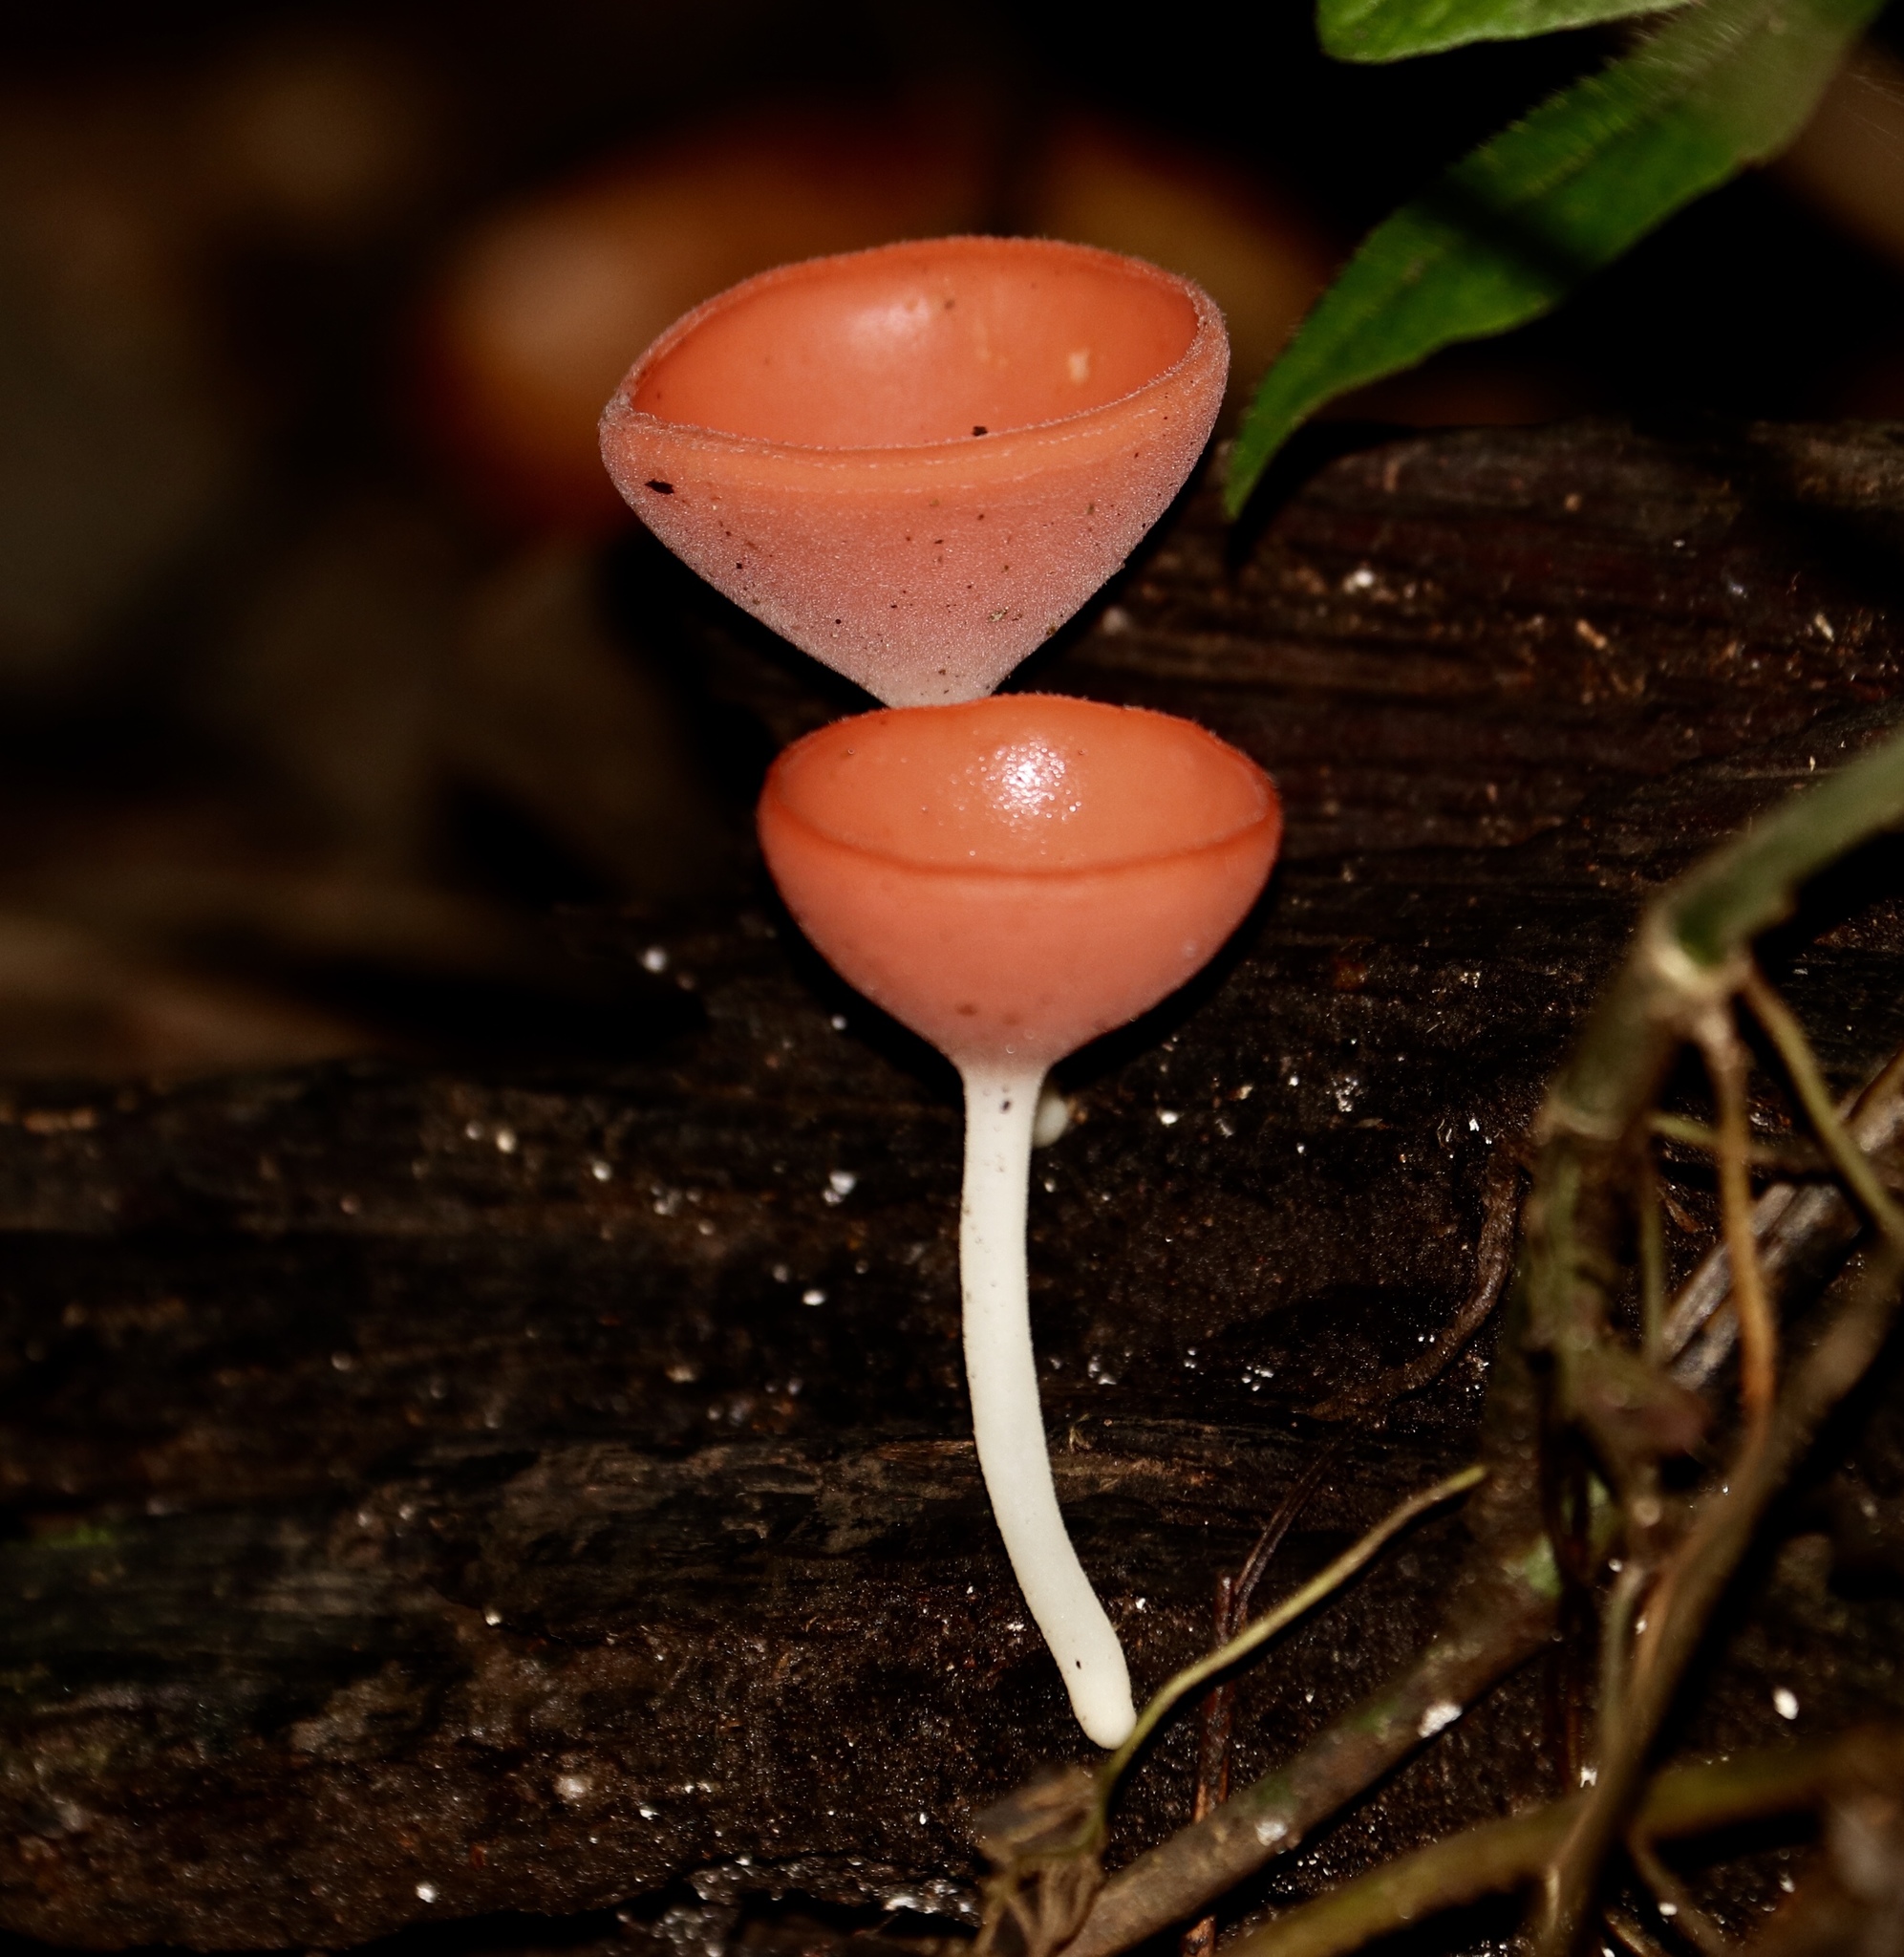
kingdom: Fungi
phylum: Ascomycota
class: Pezizomycetes
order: Pezizales
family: Sarcoscyphaceae
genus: Cookeina
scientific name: Cookeina speciosa
